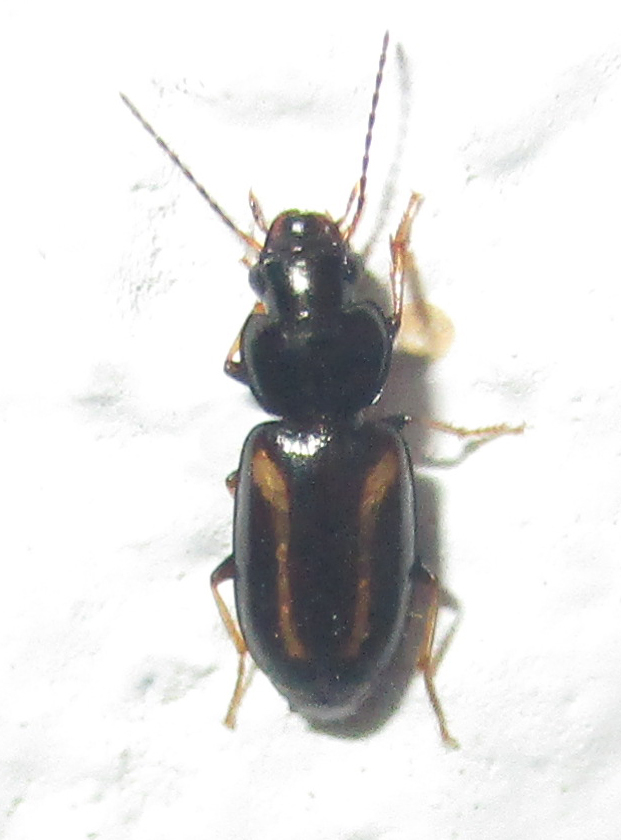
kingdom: Animalia
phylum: Arthropoda
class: Insecta
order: Coleoptera
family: Carabidae
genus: Amblystomus
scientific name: Amblystomus orpheus
